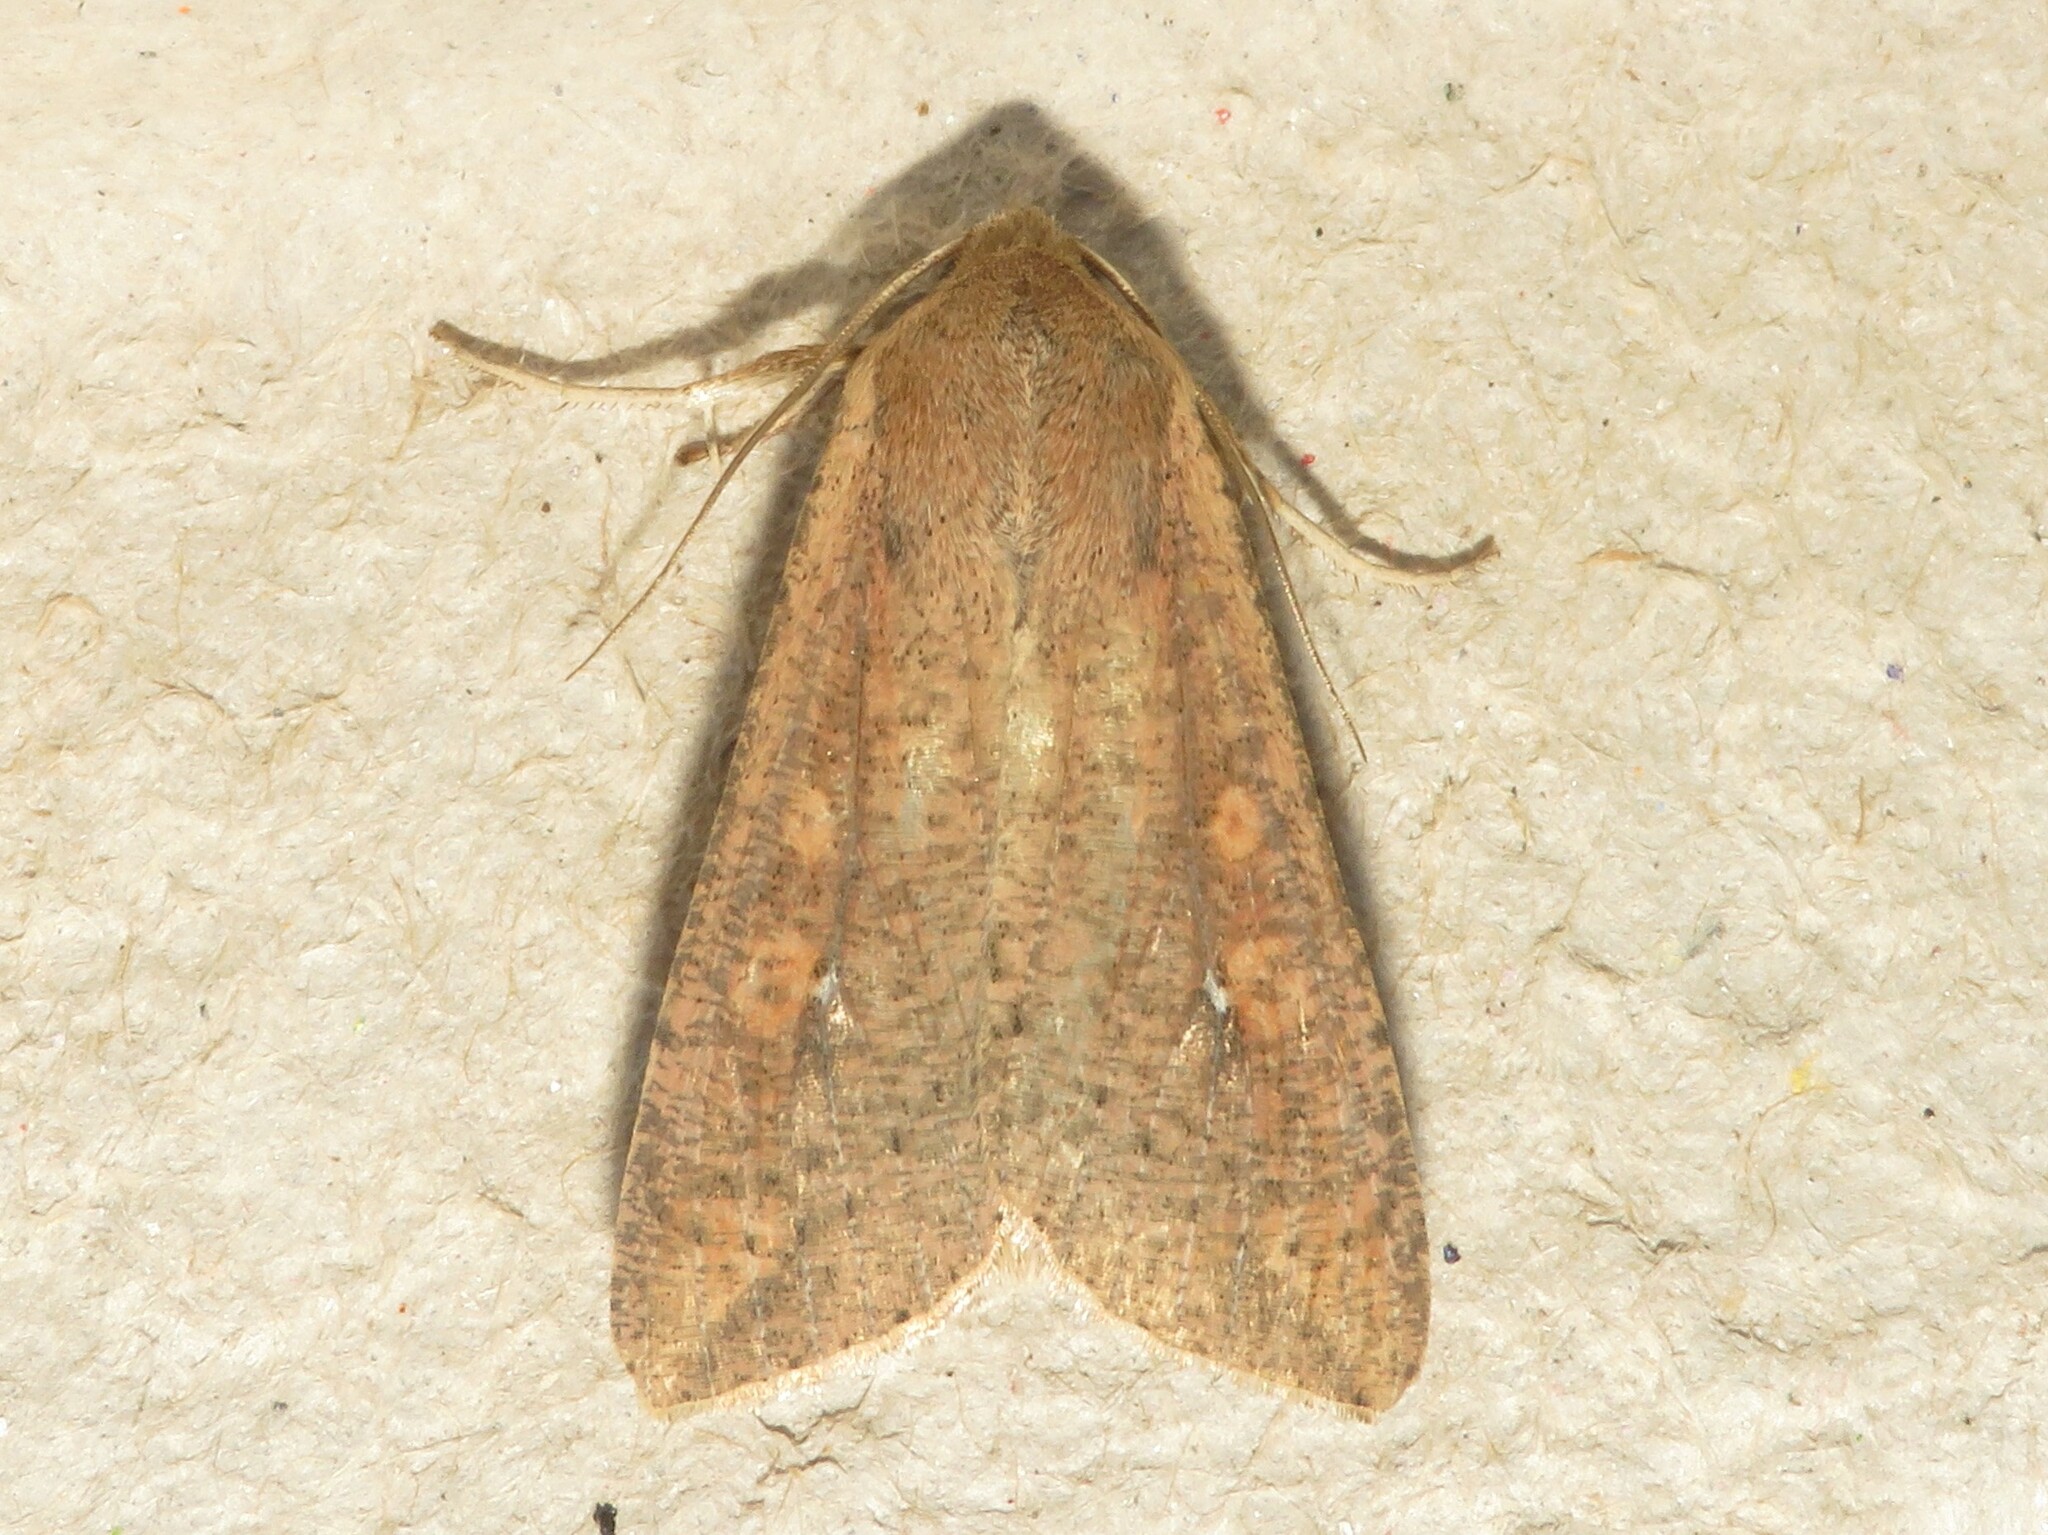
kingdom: Animalia
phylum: Arthropoda
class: Insecta
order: Lepidoptera
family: Noctuidae
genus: Mythimna
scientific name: Mythimna unipuncta
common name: White-speck
